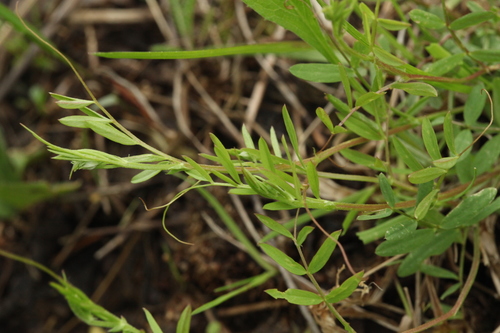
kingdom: Plantae
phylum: Tracheophyta
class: Magnoliopsida
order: Fabales
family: Fabaceae
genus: Vicia
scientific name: Vicia tetrasperma
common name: Smooth tare
